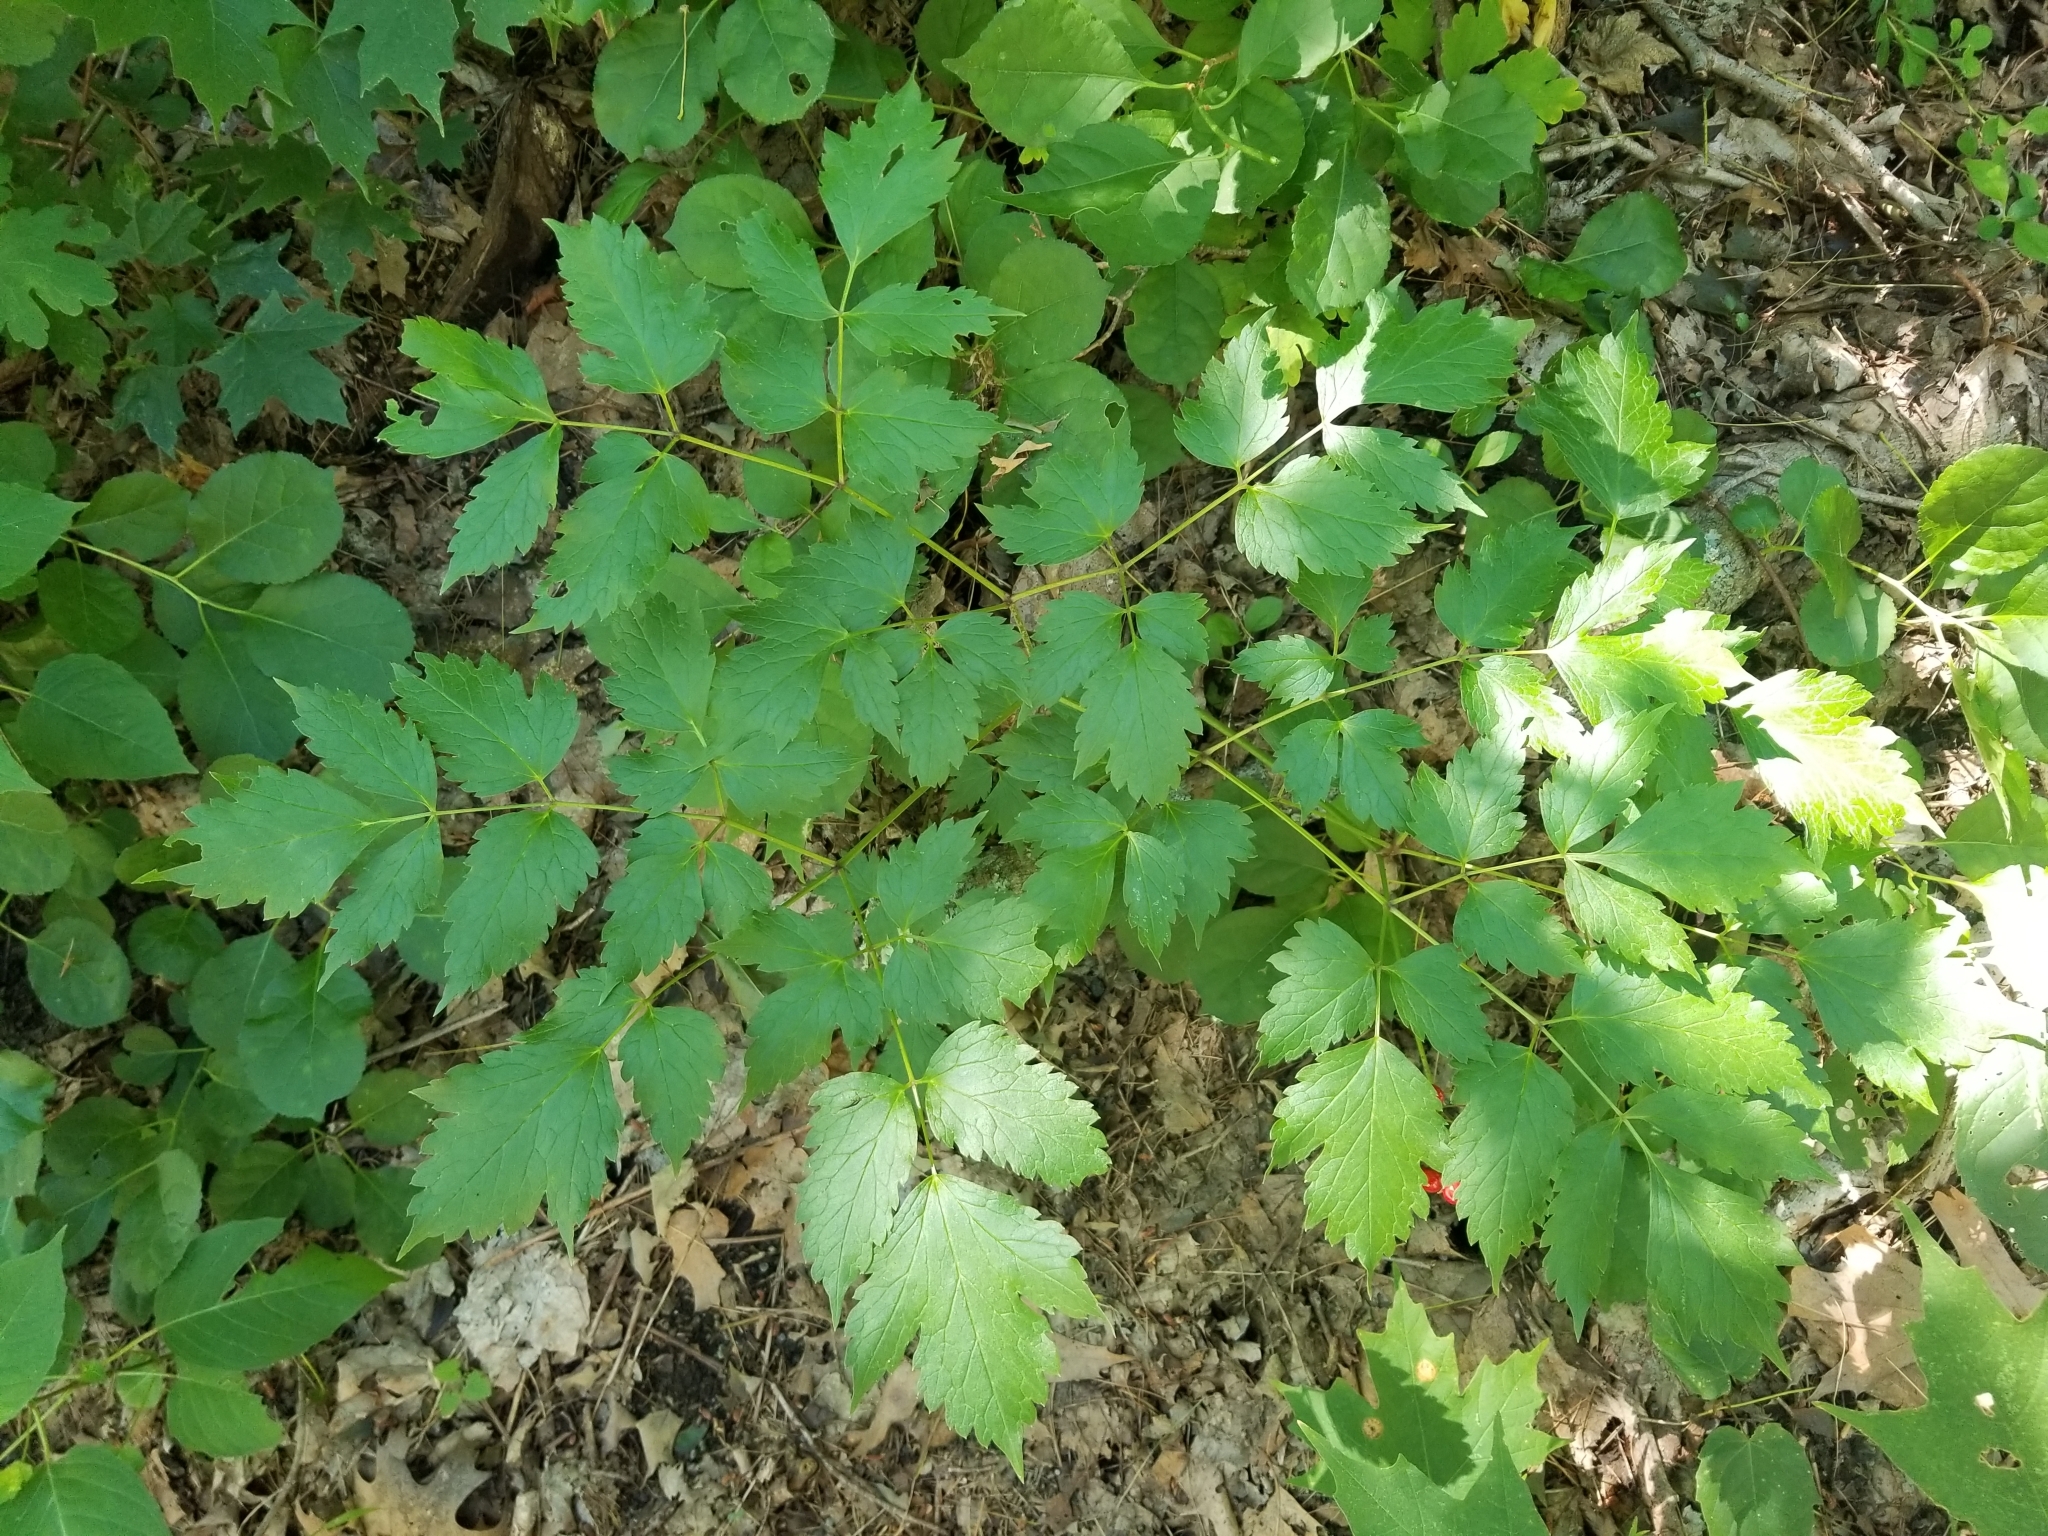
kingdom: Plantae
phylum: Tracheophyta
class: Magnoliopsida
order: Ranunculales
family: Ranunculaceae
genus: Actaea
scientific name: Actaea rubra
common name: Red baneberry
